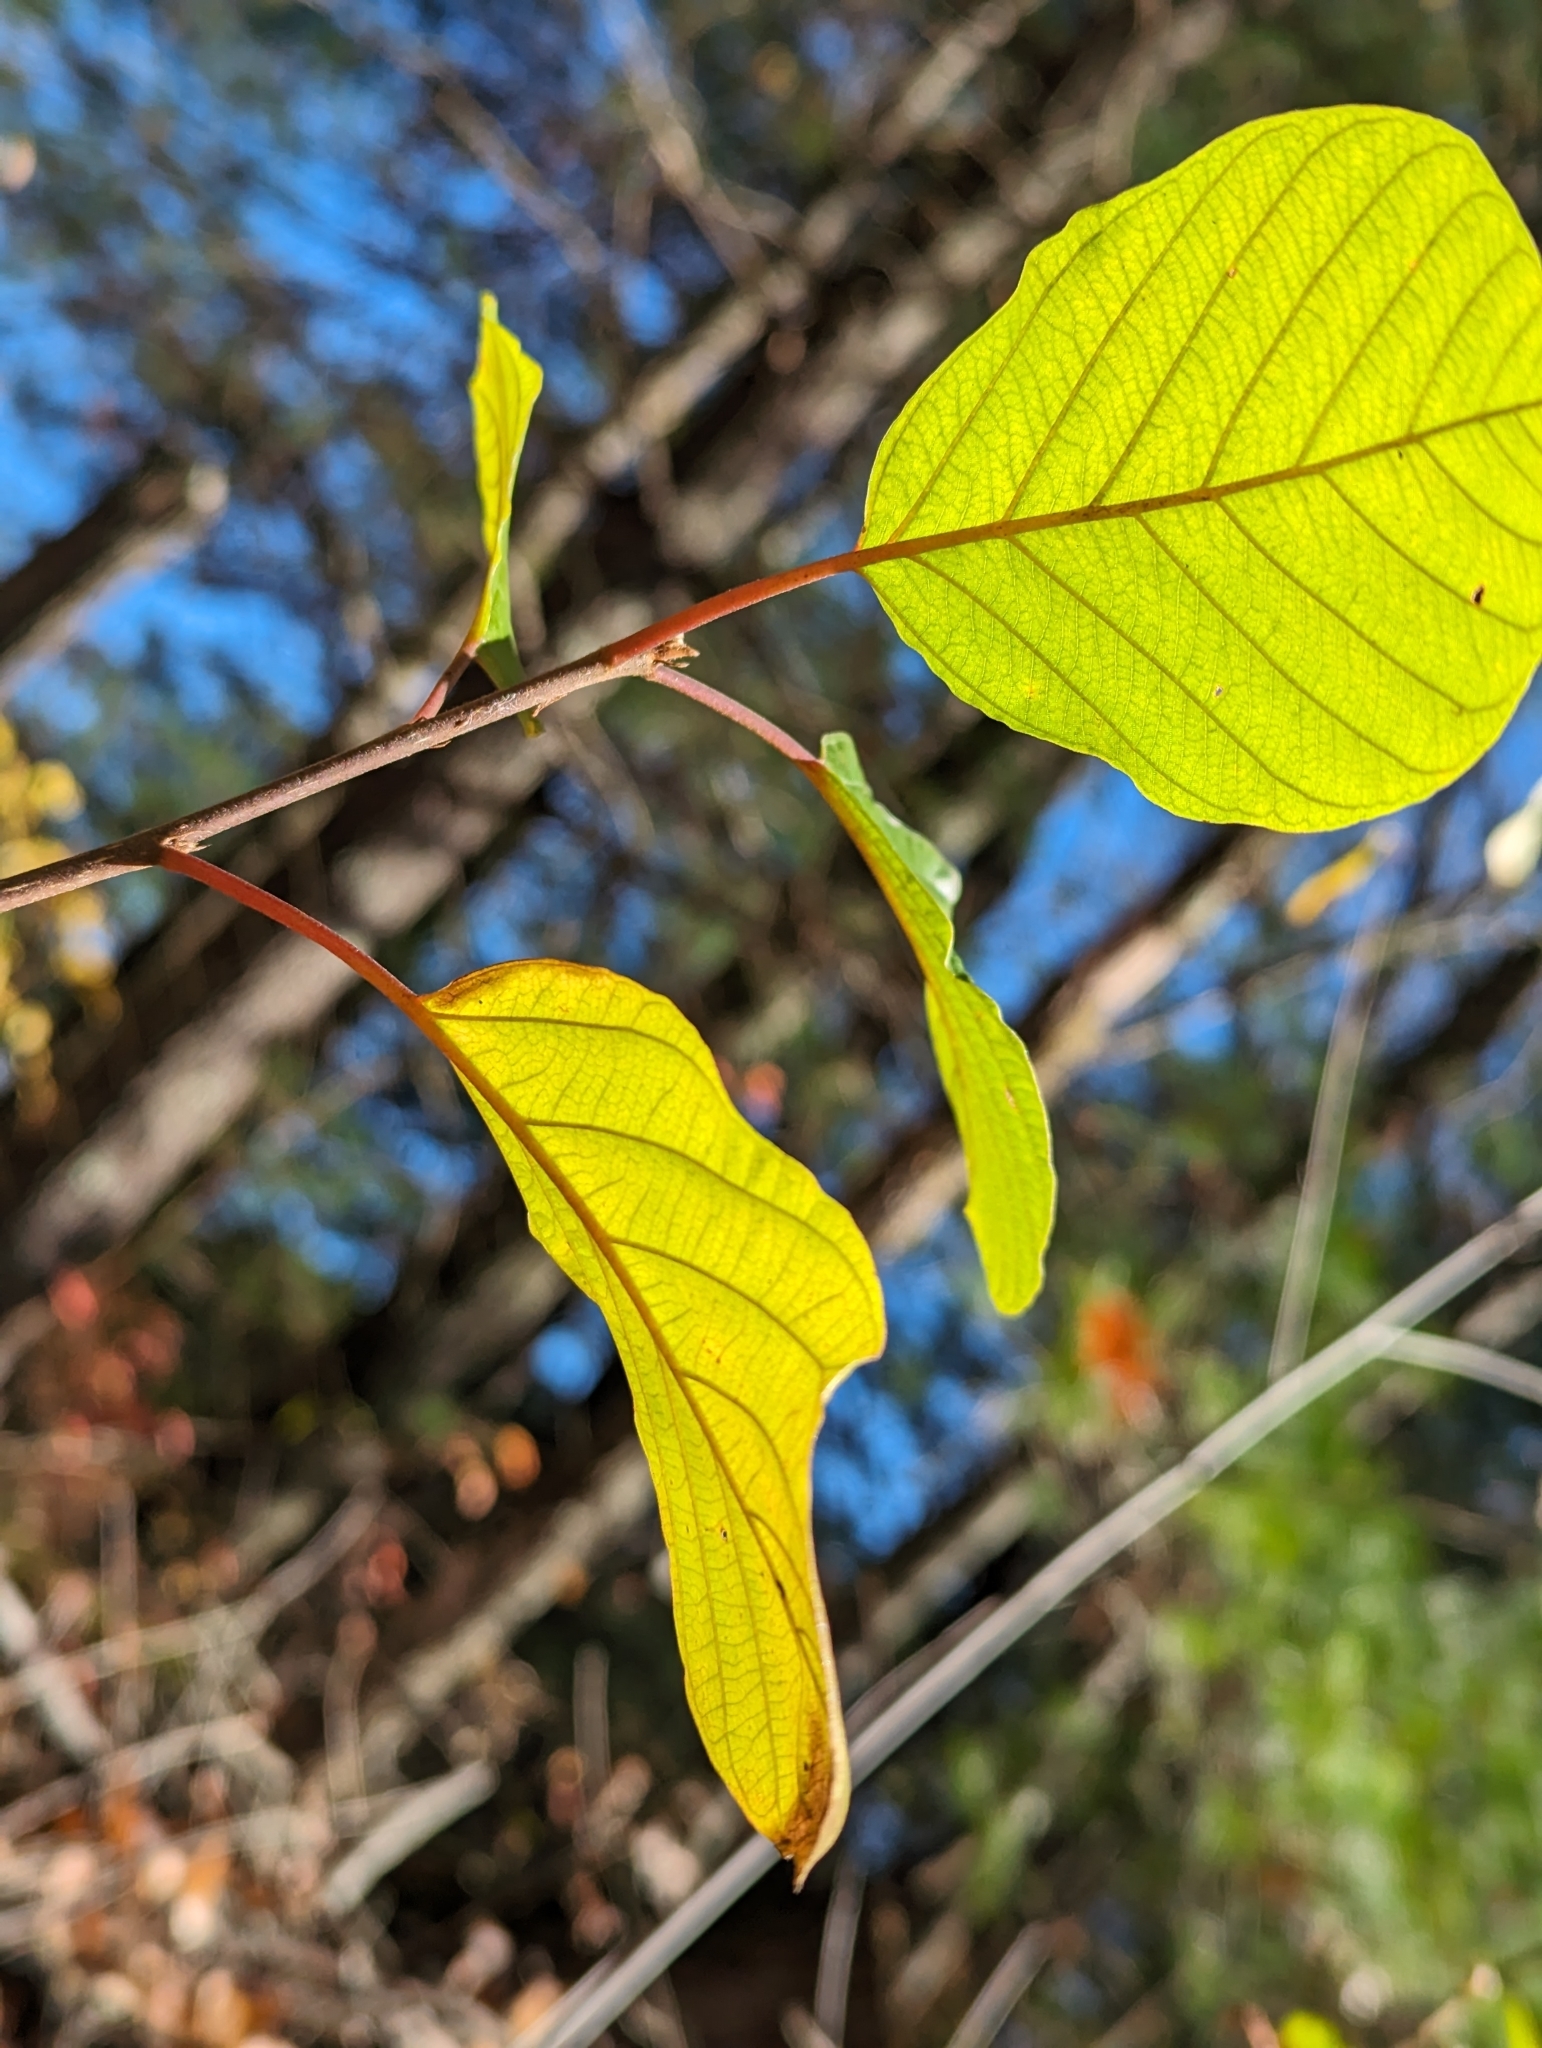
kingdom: Plantae
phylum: Tracheophyta
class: Magnoliopsida
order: Rosales
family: Rhamnaceae
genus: Frangula
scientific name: Frangula alnus
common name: Alder buckthorn
